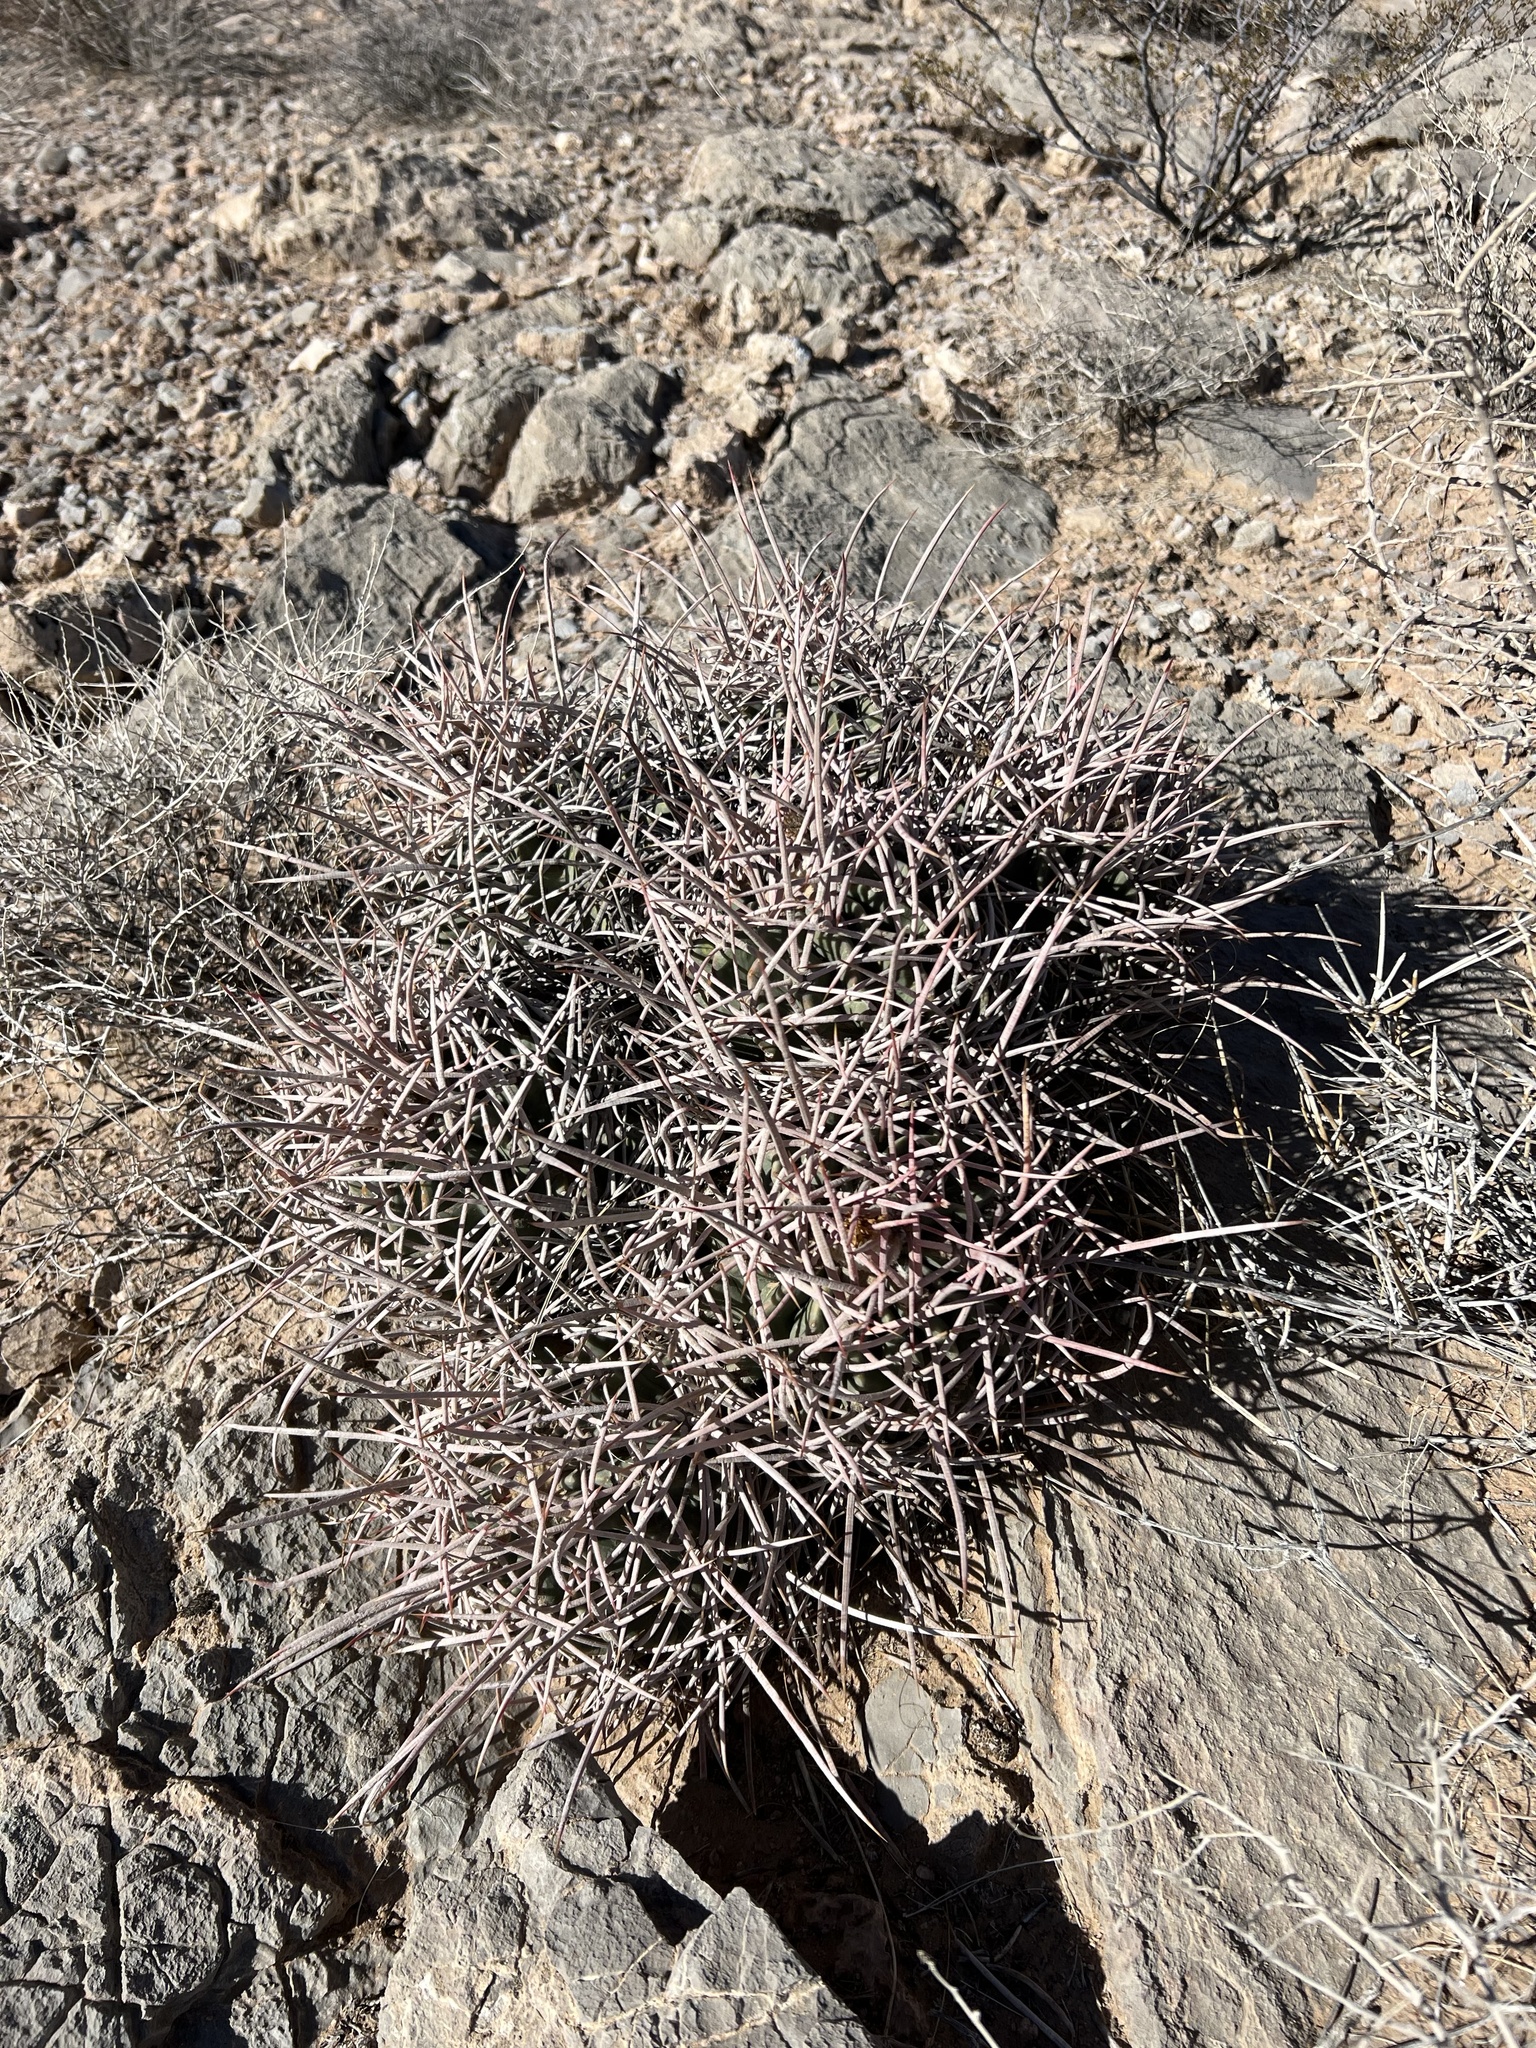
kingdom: Plantae
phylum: Tracheophyta
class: Magnoliopsida
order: Caryophyllales
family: Cactaceae
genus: Echinocactus
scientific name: Echinocactus polycephalus
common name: Cottontop cactus
